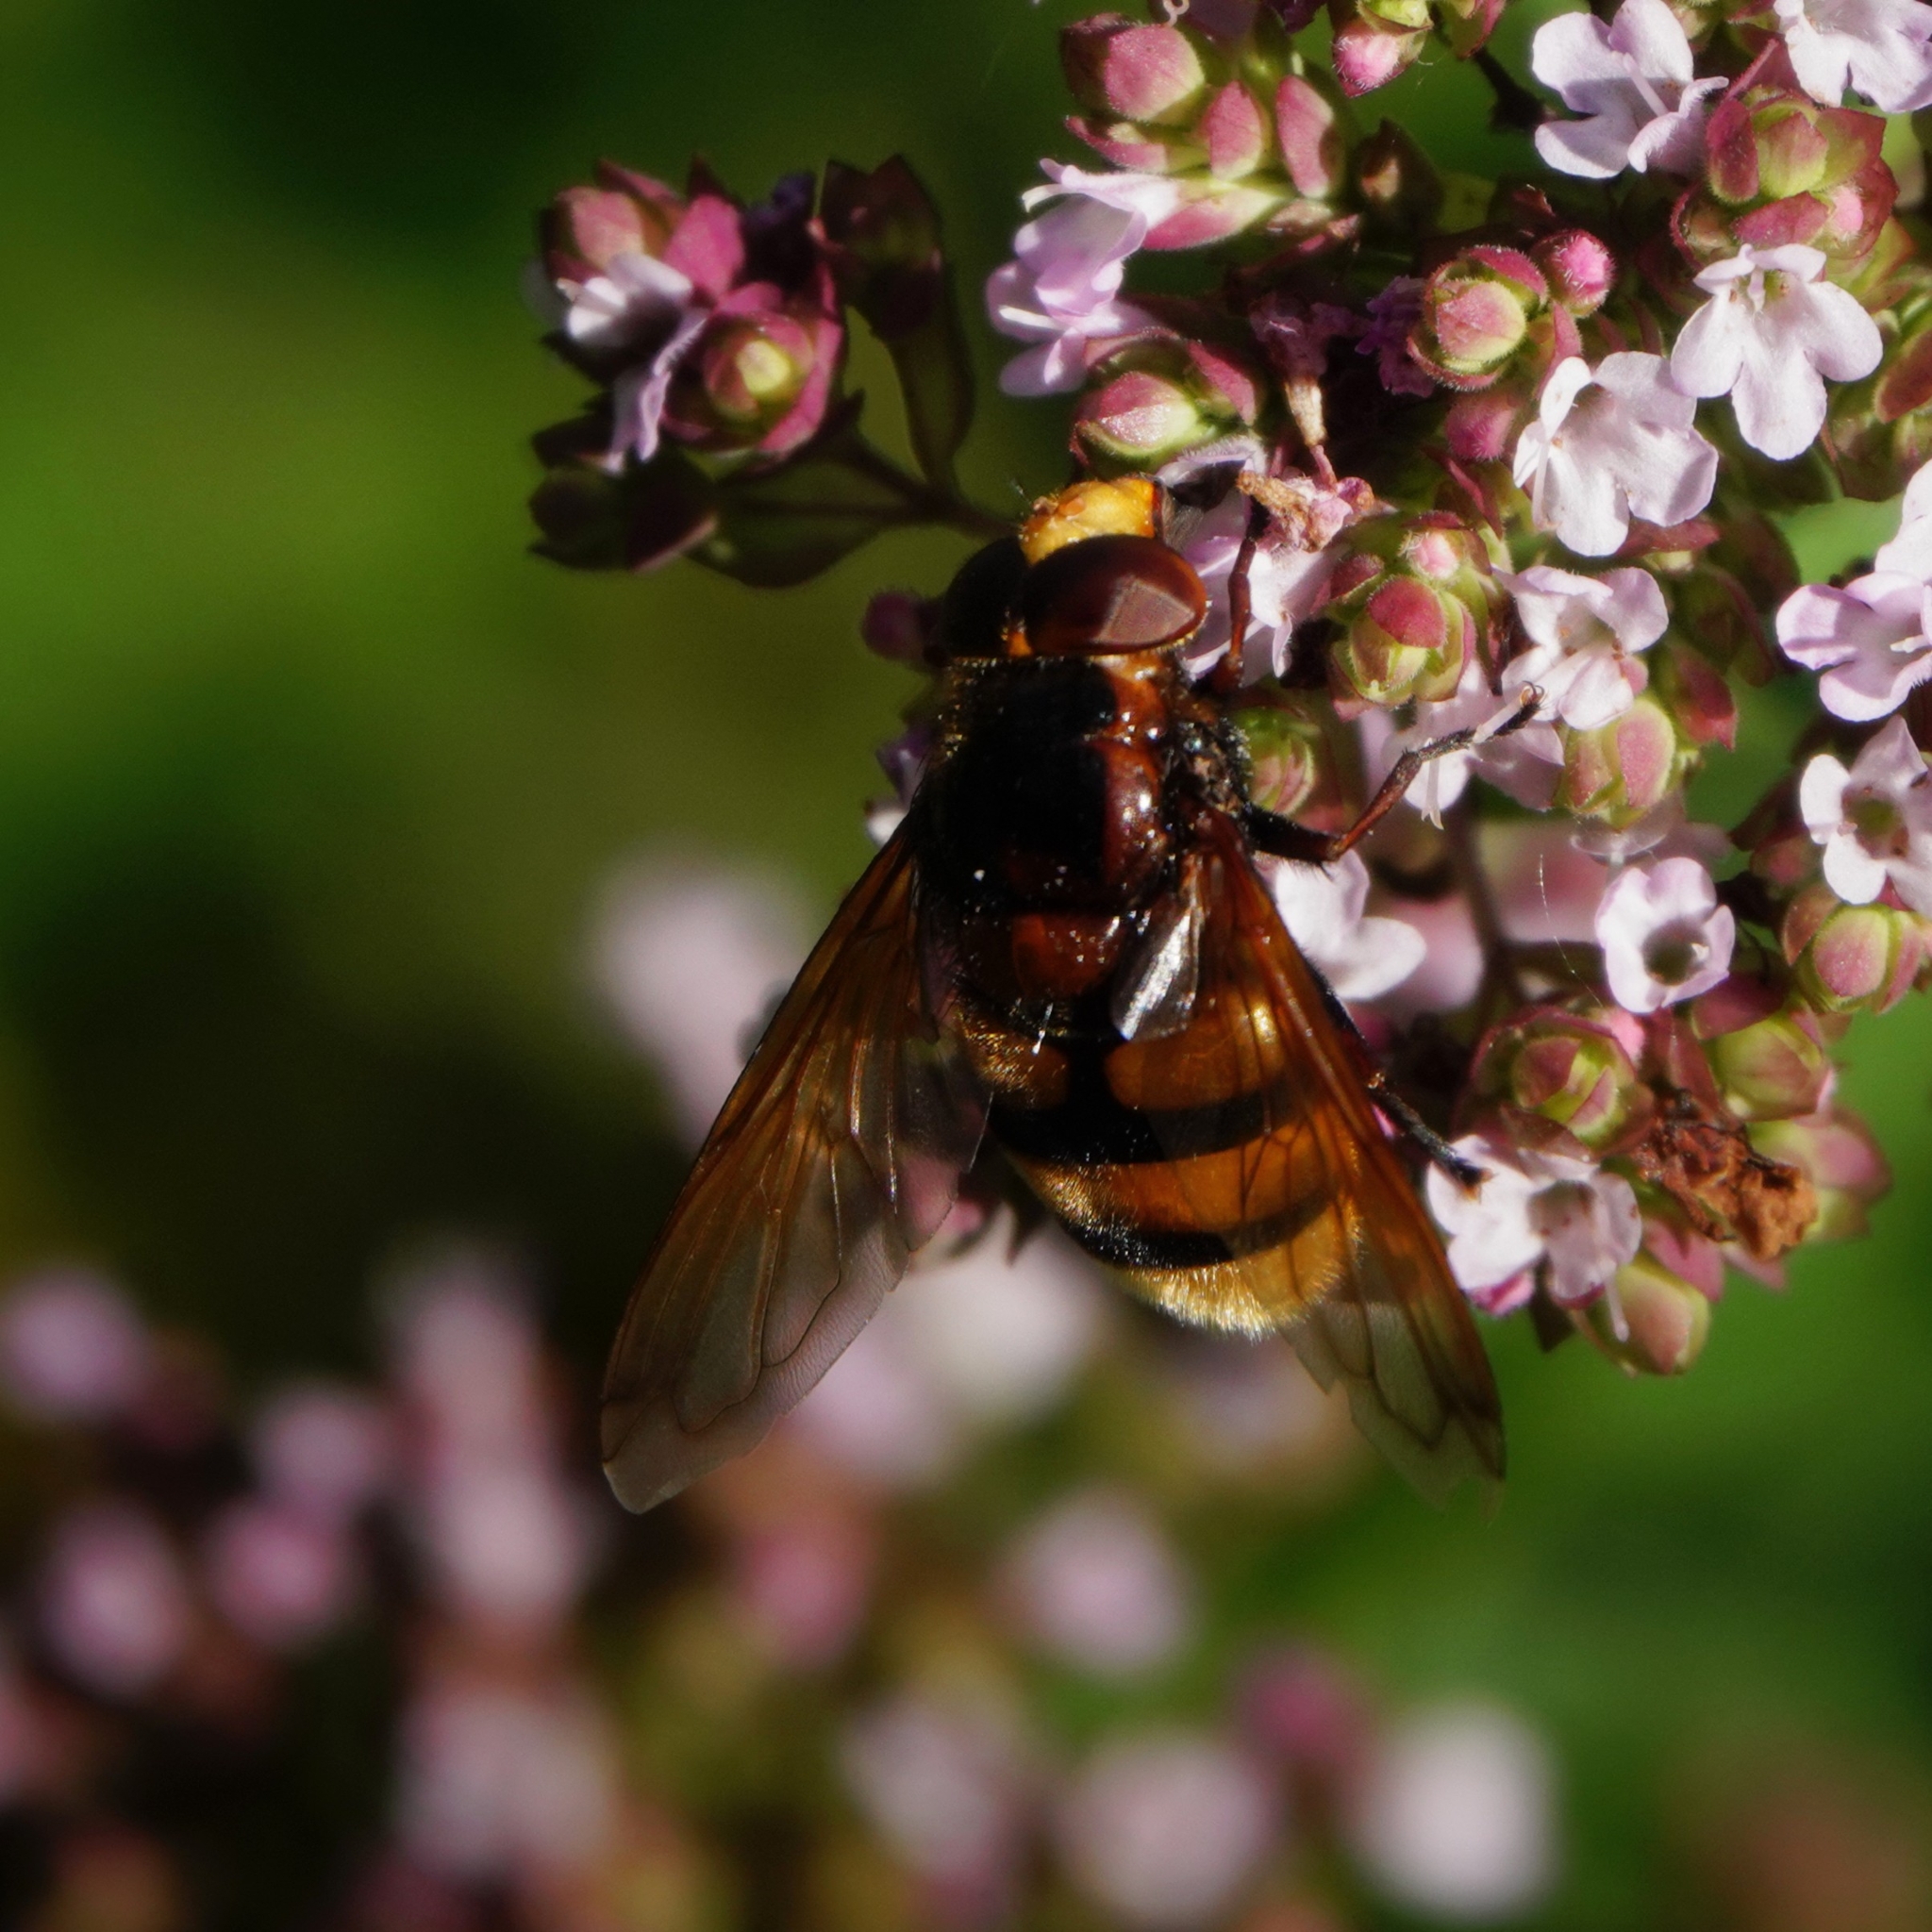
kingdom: Animalia
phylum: Arthropoda
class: Insecta
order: Diptera
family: Syrphidae
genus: Volucella
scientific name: Volucella zonaria
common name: Hornet hoverfly
